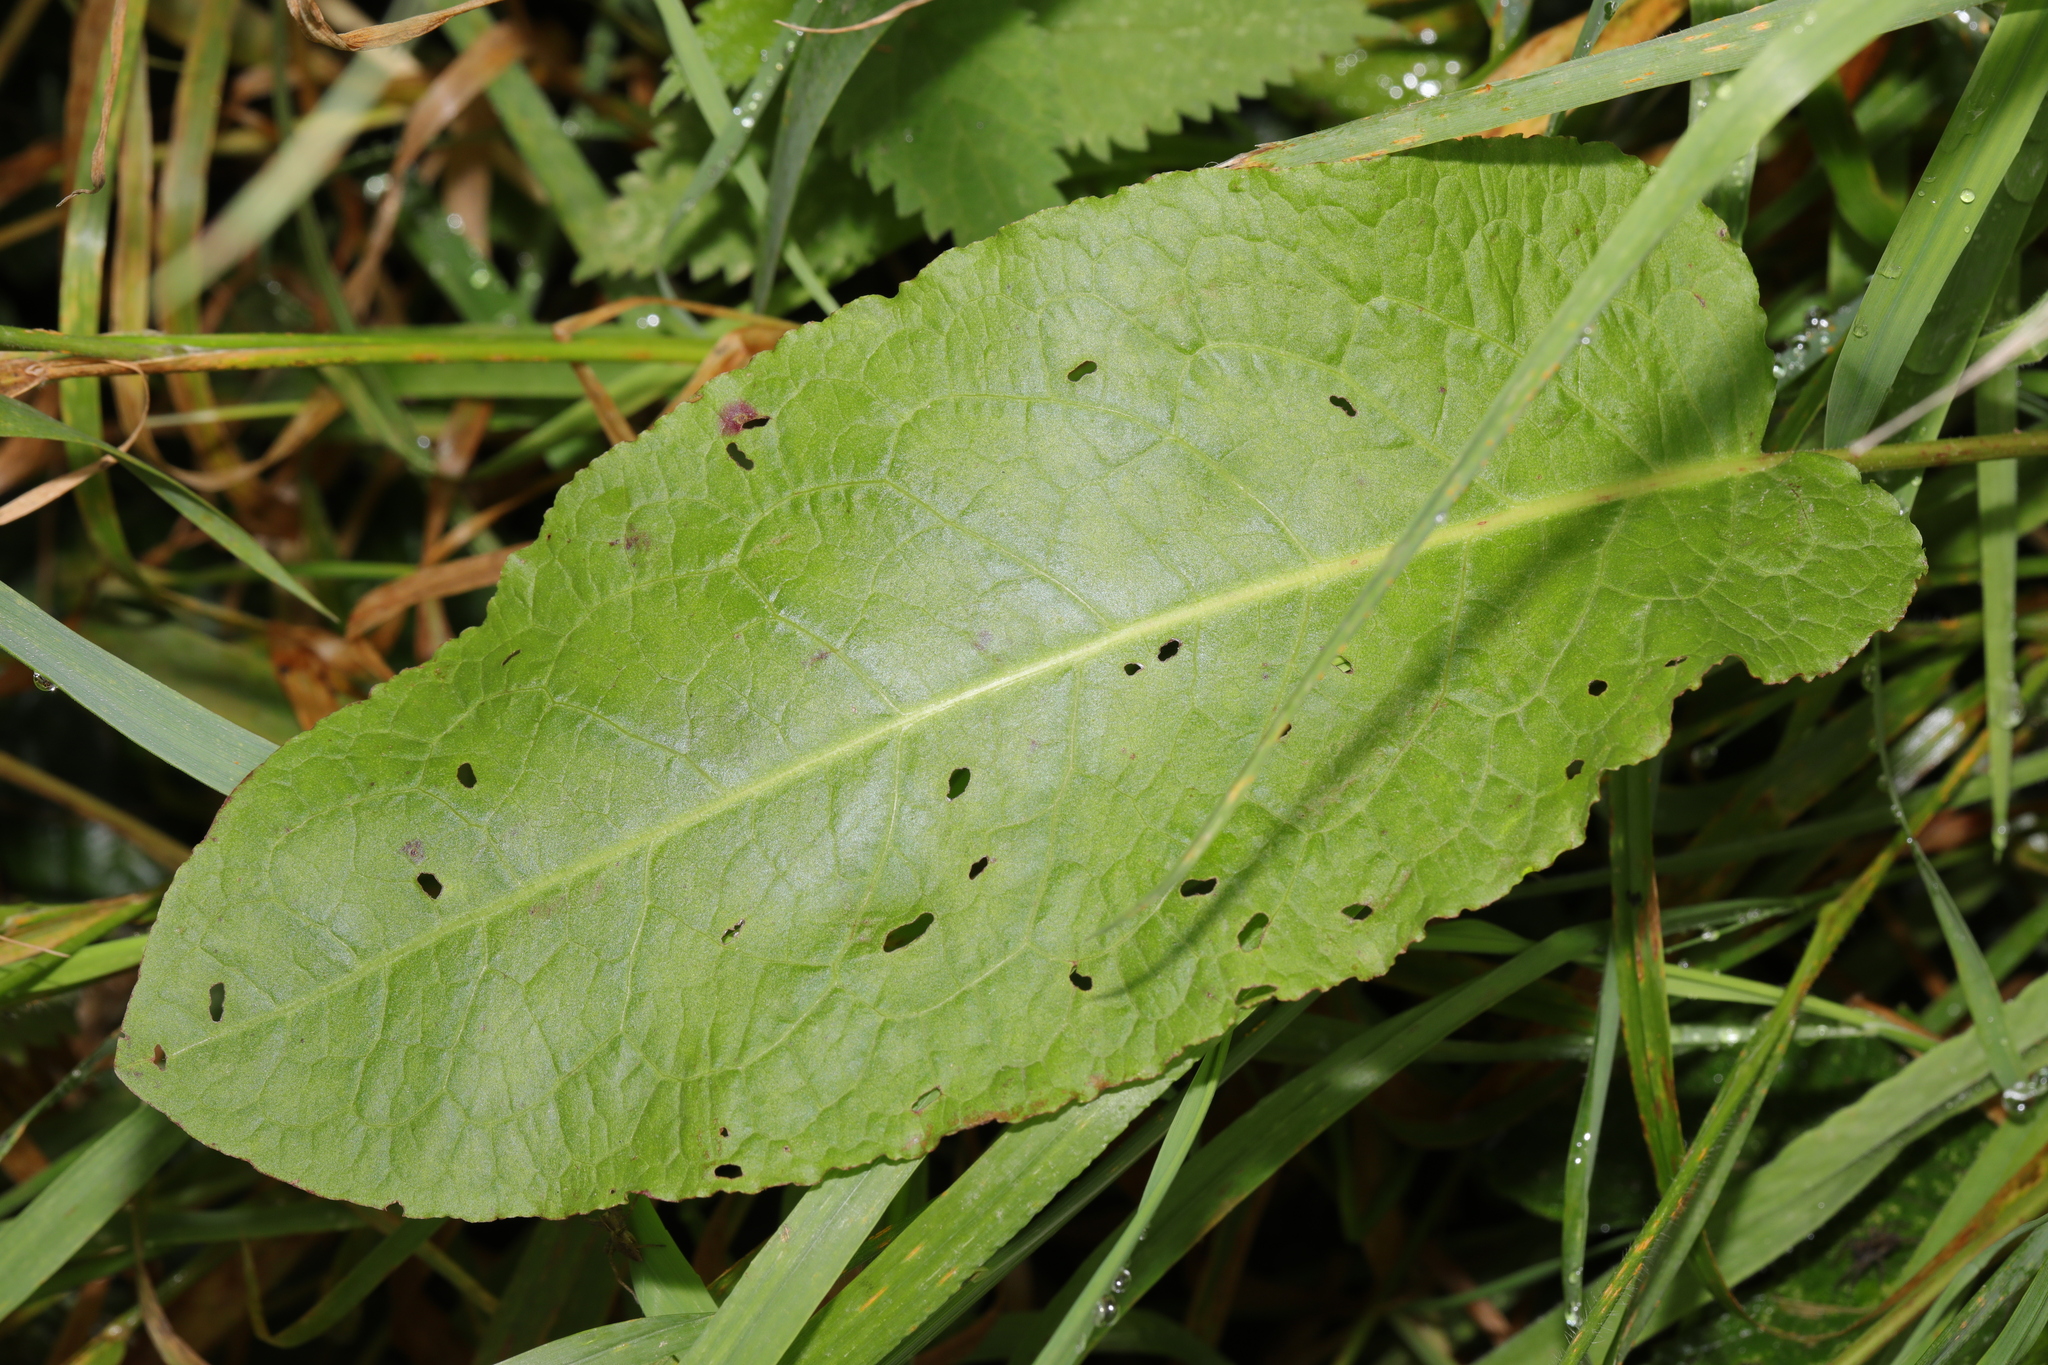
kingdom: Plantae
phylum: Tracheophyta
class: Magnoliopsida
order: Caryophyllales
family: Polygonaceae
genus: Rumex
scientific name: Rumex obtusifolius
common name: Bitter dock
